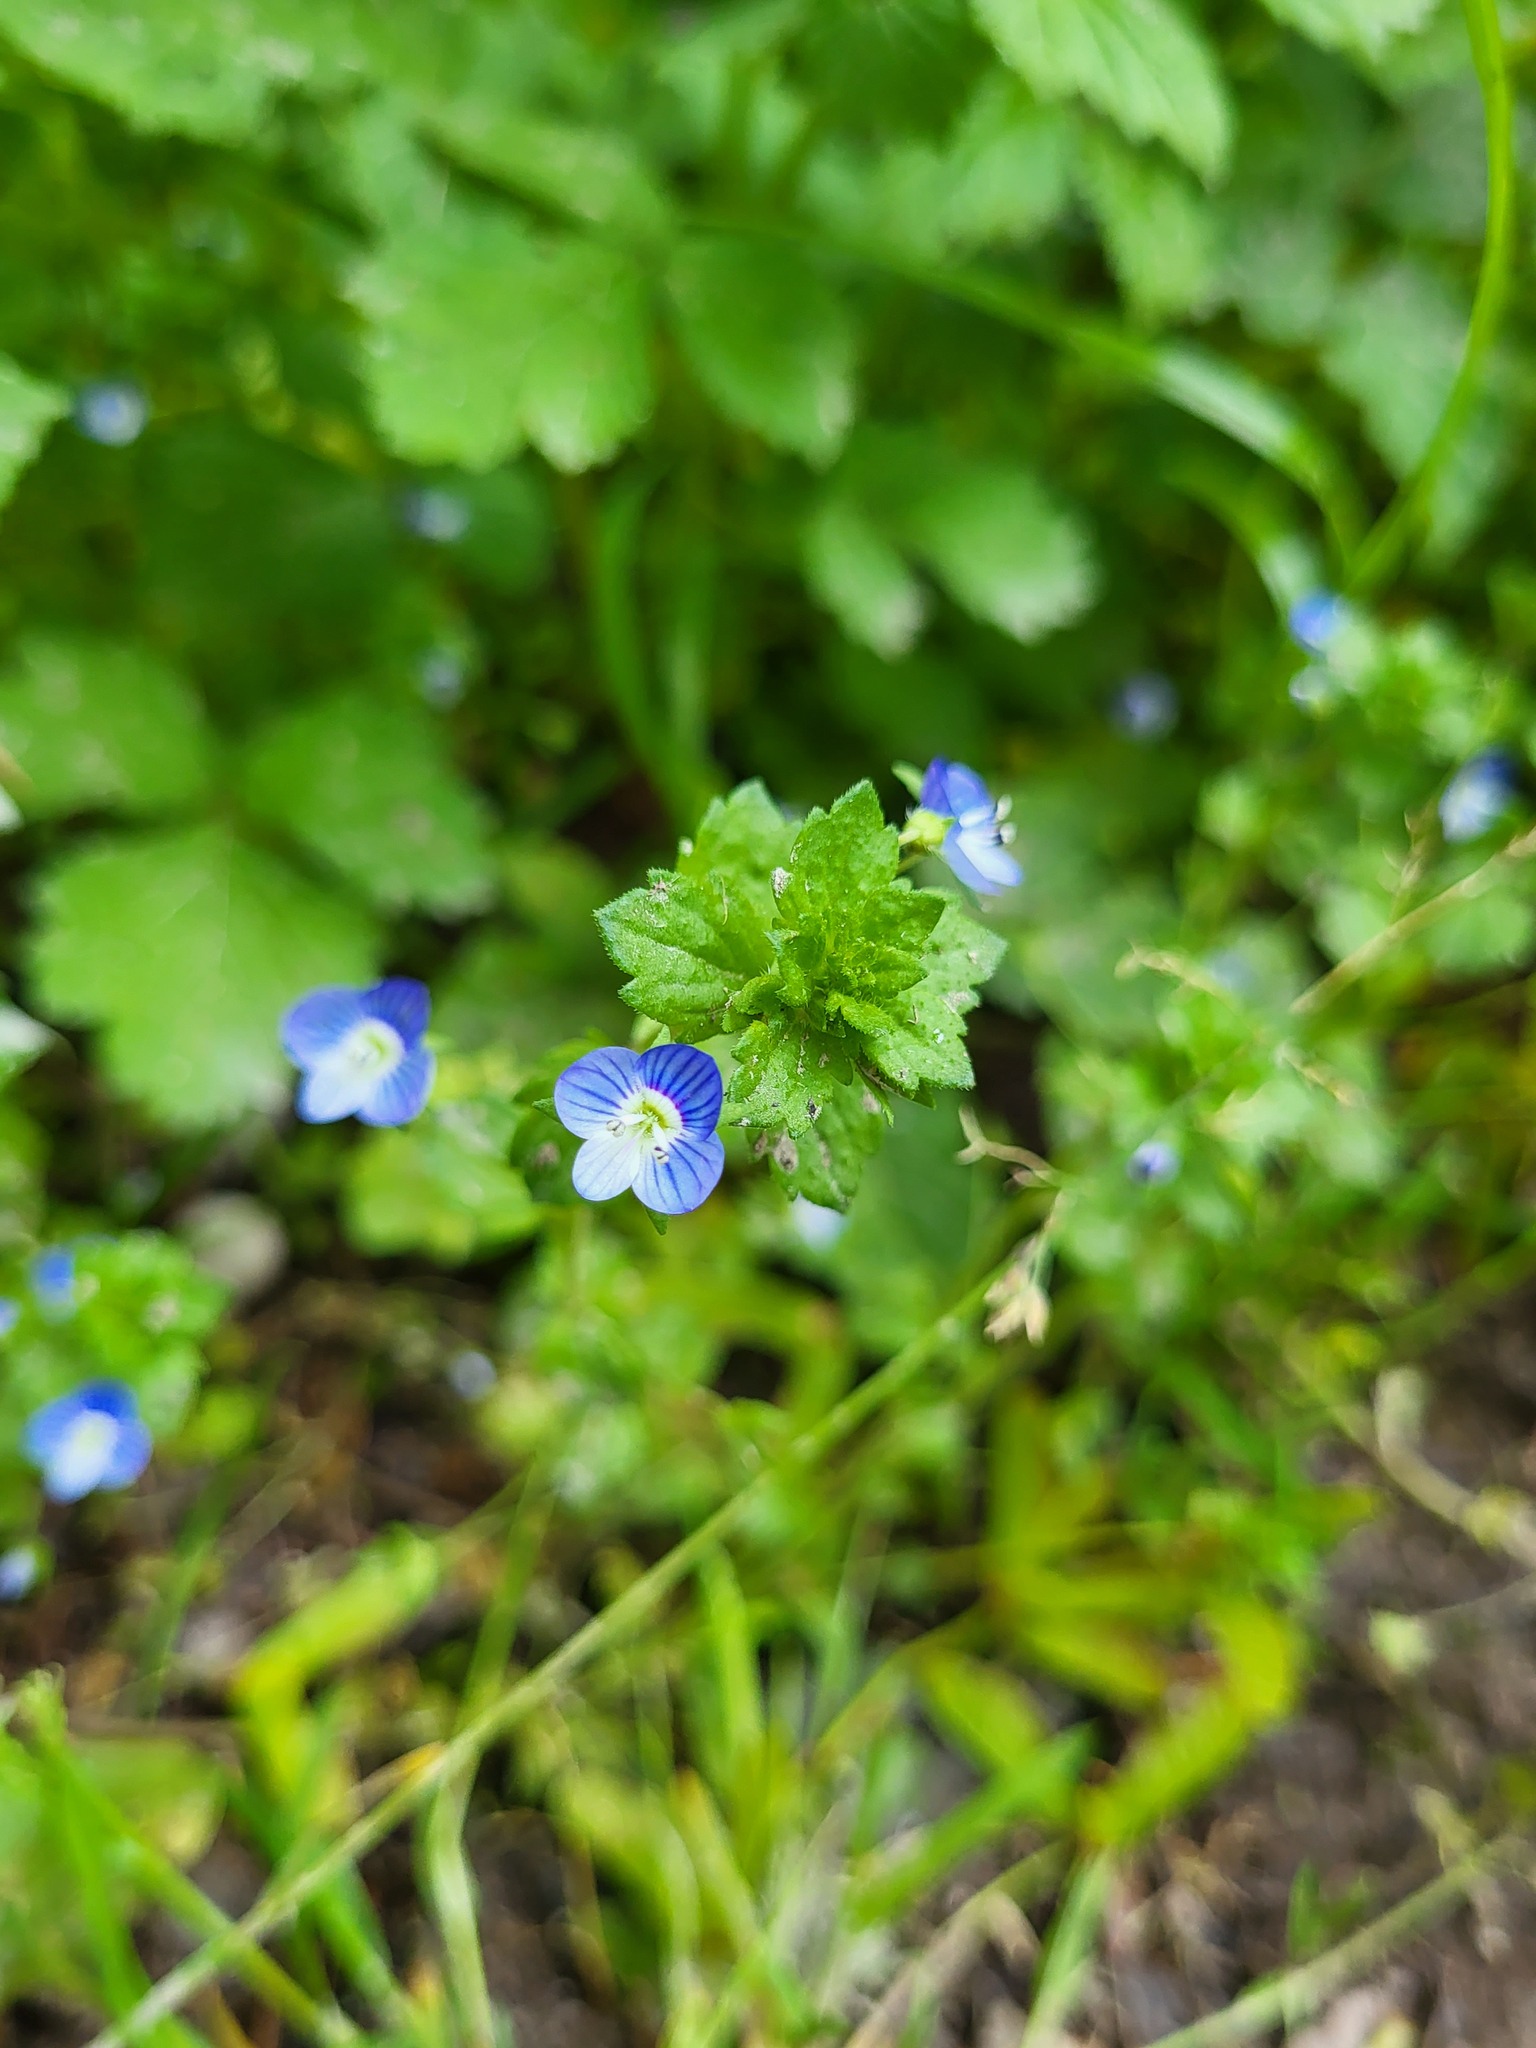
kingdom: Plantae
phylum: Tracheophyta
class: Magnoliopsida
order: Lamiales
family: Plantaginaceae
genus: Veronica
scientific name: Veronica persica
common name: Common field-speedwell
